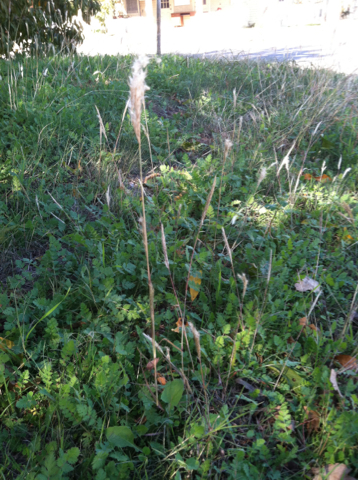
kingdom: Plantae
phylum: Tracheophyta
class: Liliopsida
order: Poales
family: Poaceae
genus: Bothriochloa
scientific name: Bothriochloa torreyana
